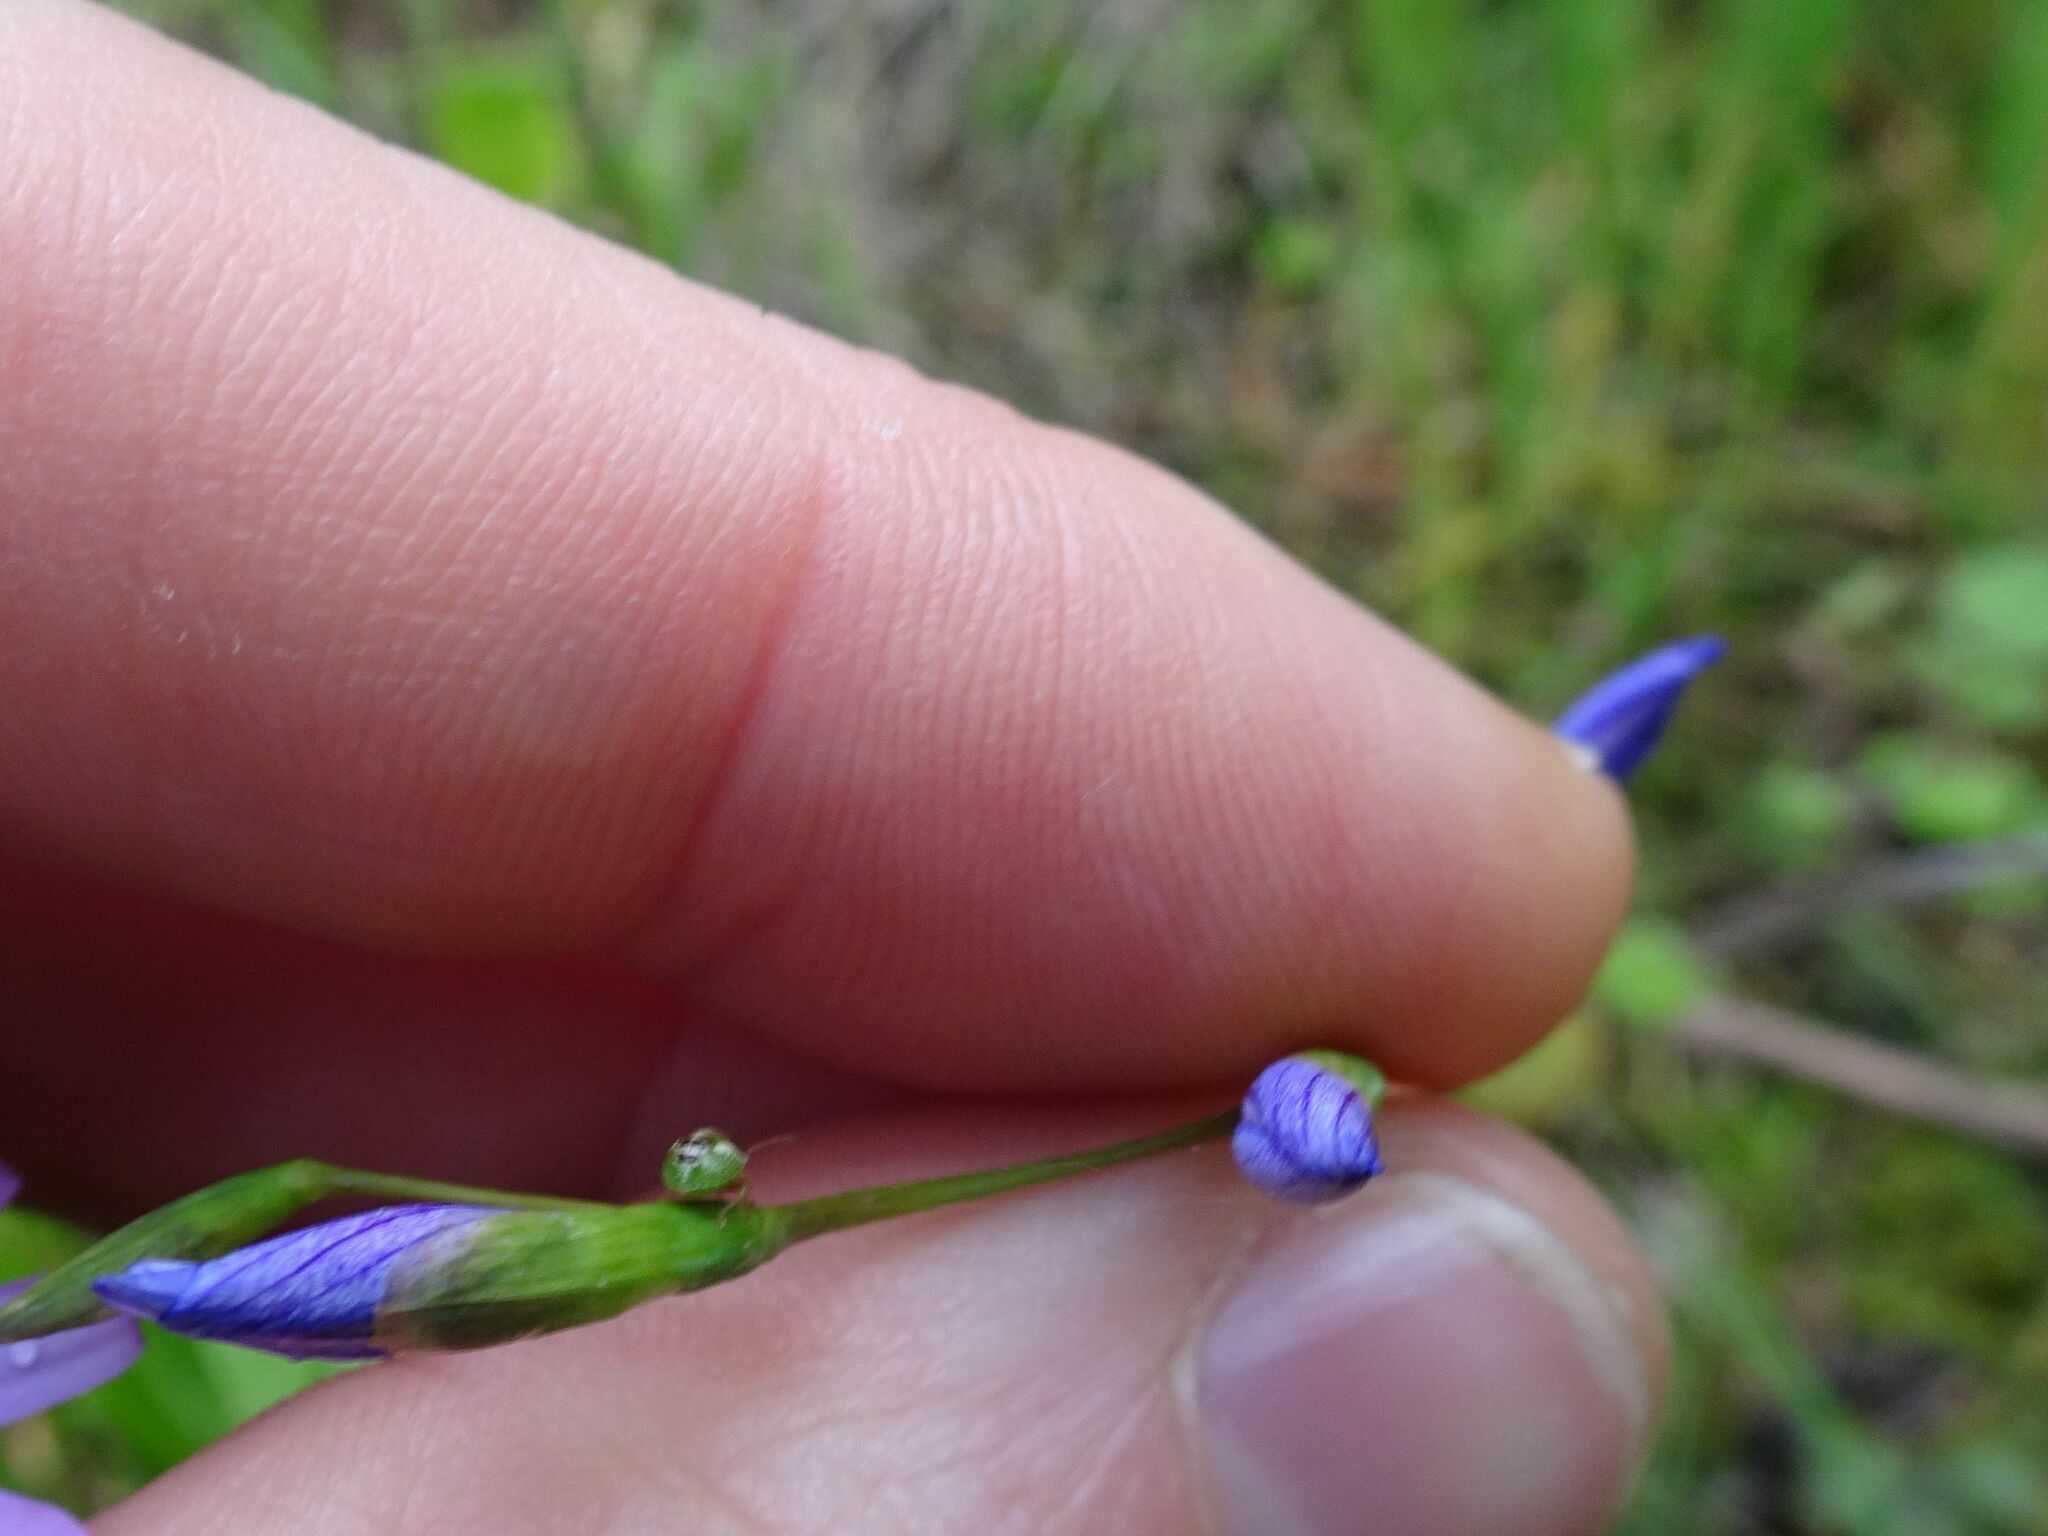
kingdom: Plantae
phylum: Tracheophyta
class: Liliopsida
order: Asparagales
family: Iridaceae
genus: Geissorhiza
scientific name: Geissorhiza aspera
